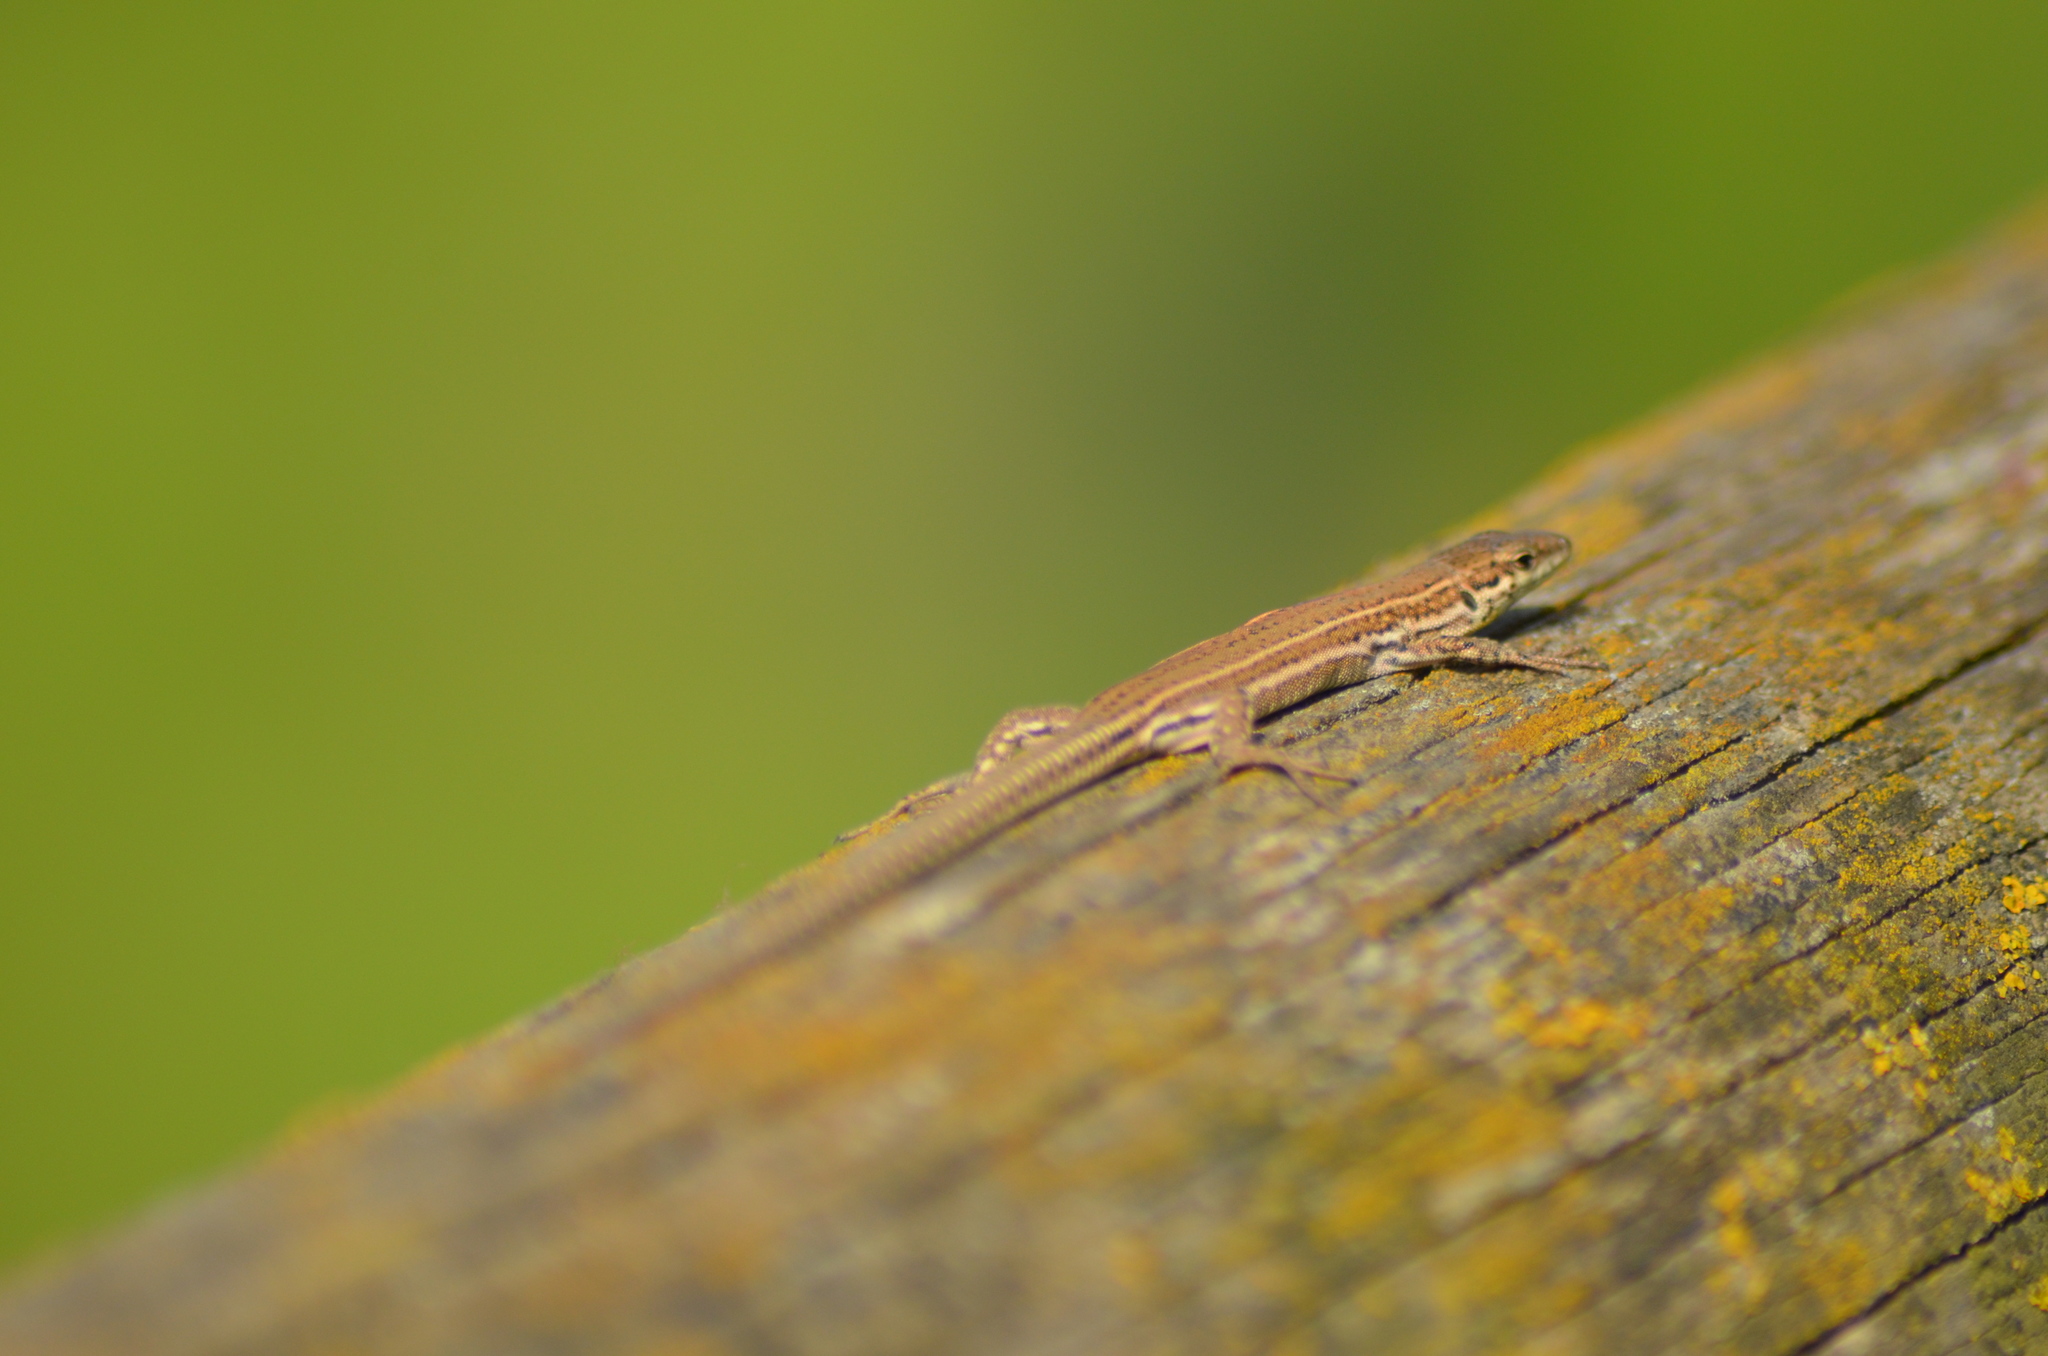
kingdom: Animalia
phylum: Chordata
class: Squamata
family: Lacertidae
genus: Podarcis
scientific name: Podarcis liolepis
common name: Catalonian wall lizard
